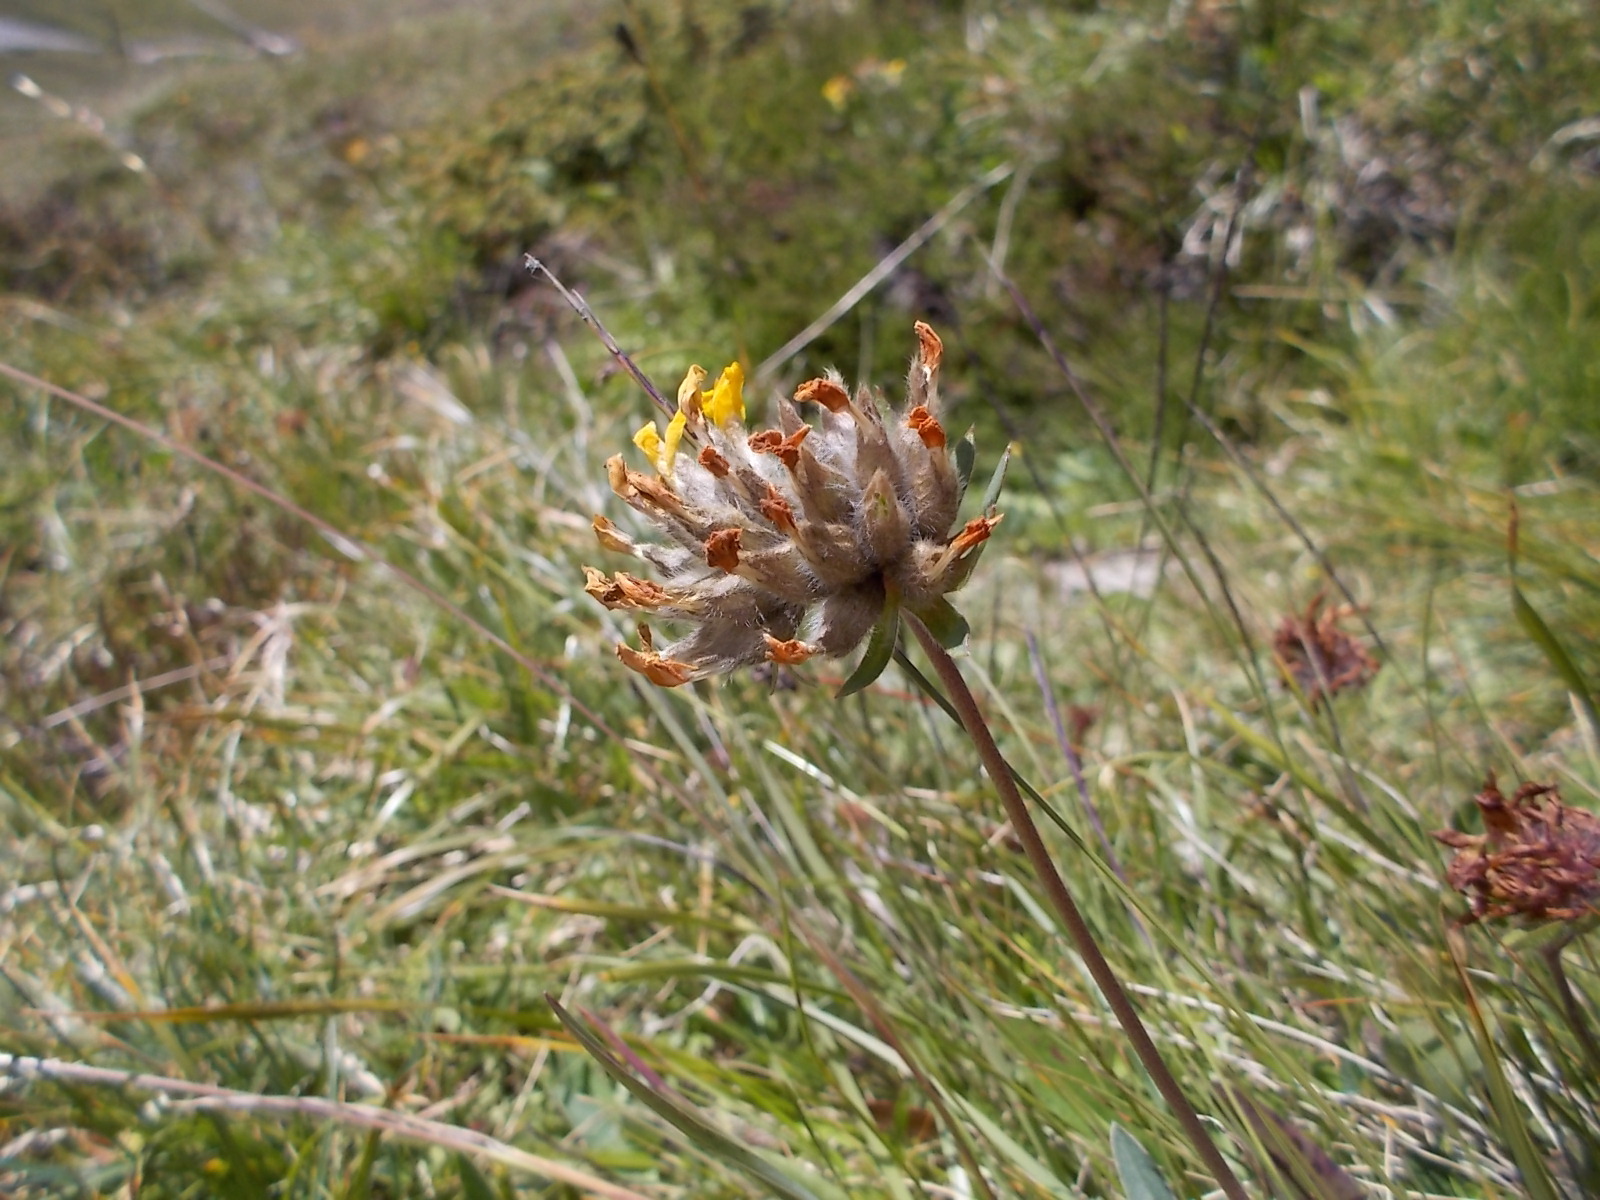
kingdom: Plantae
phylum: Tracheophyta
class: Magnoliopsida
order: Fabales
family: Fabaceae
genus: Anthyllis
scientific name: Anthyllis vulneraria
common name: Kidney vetch
